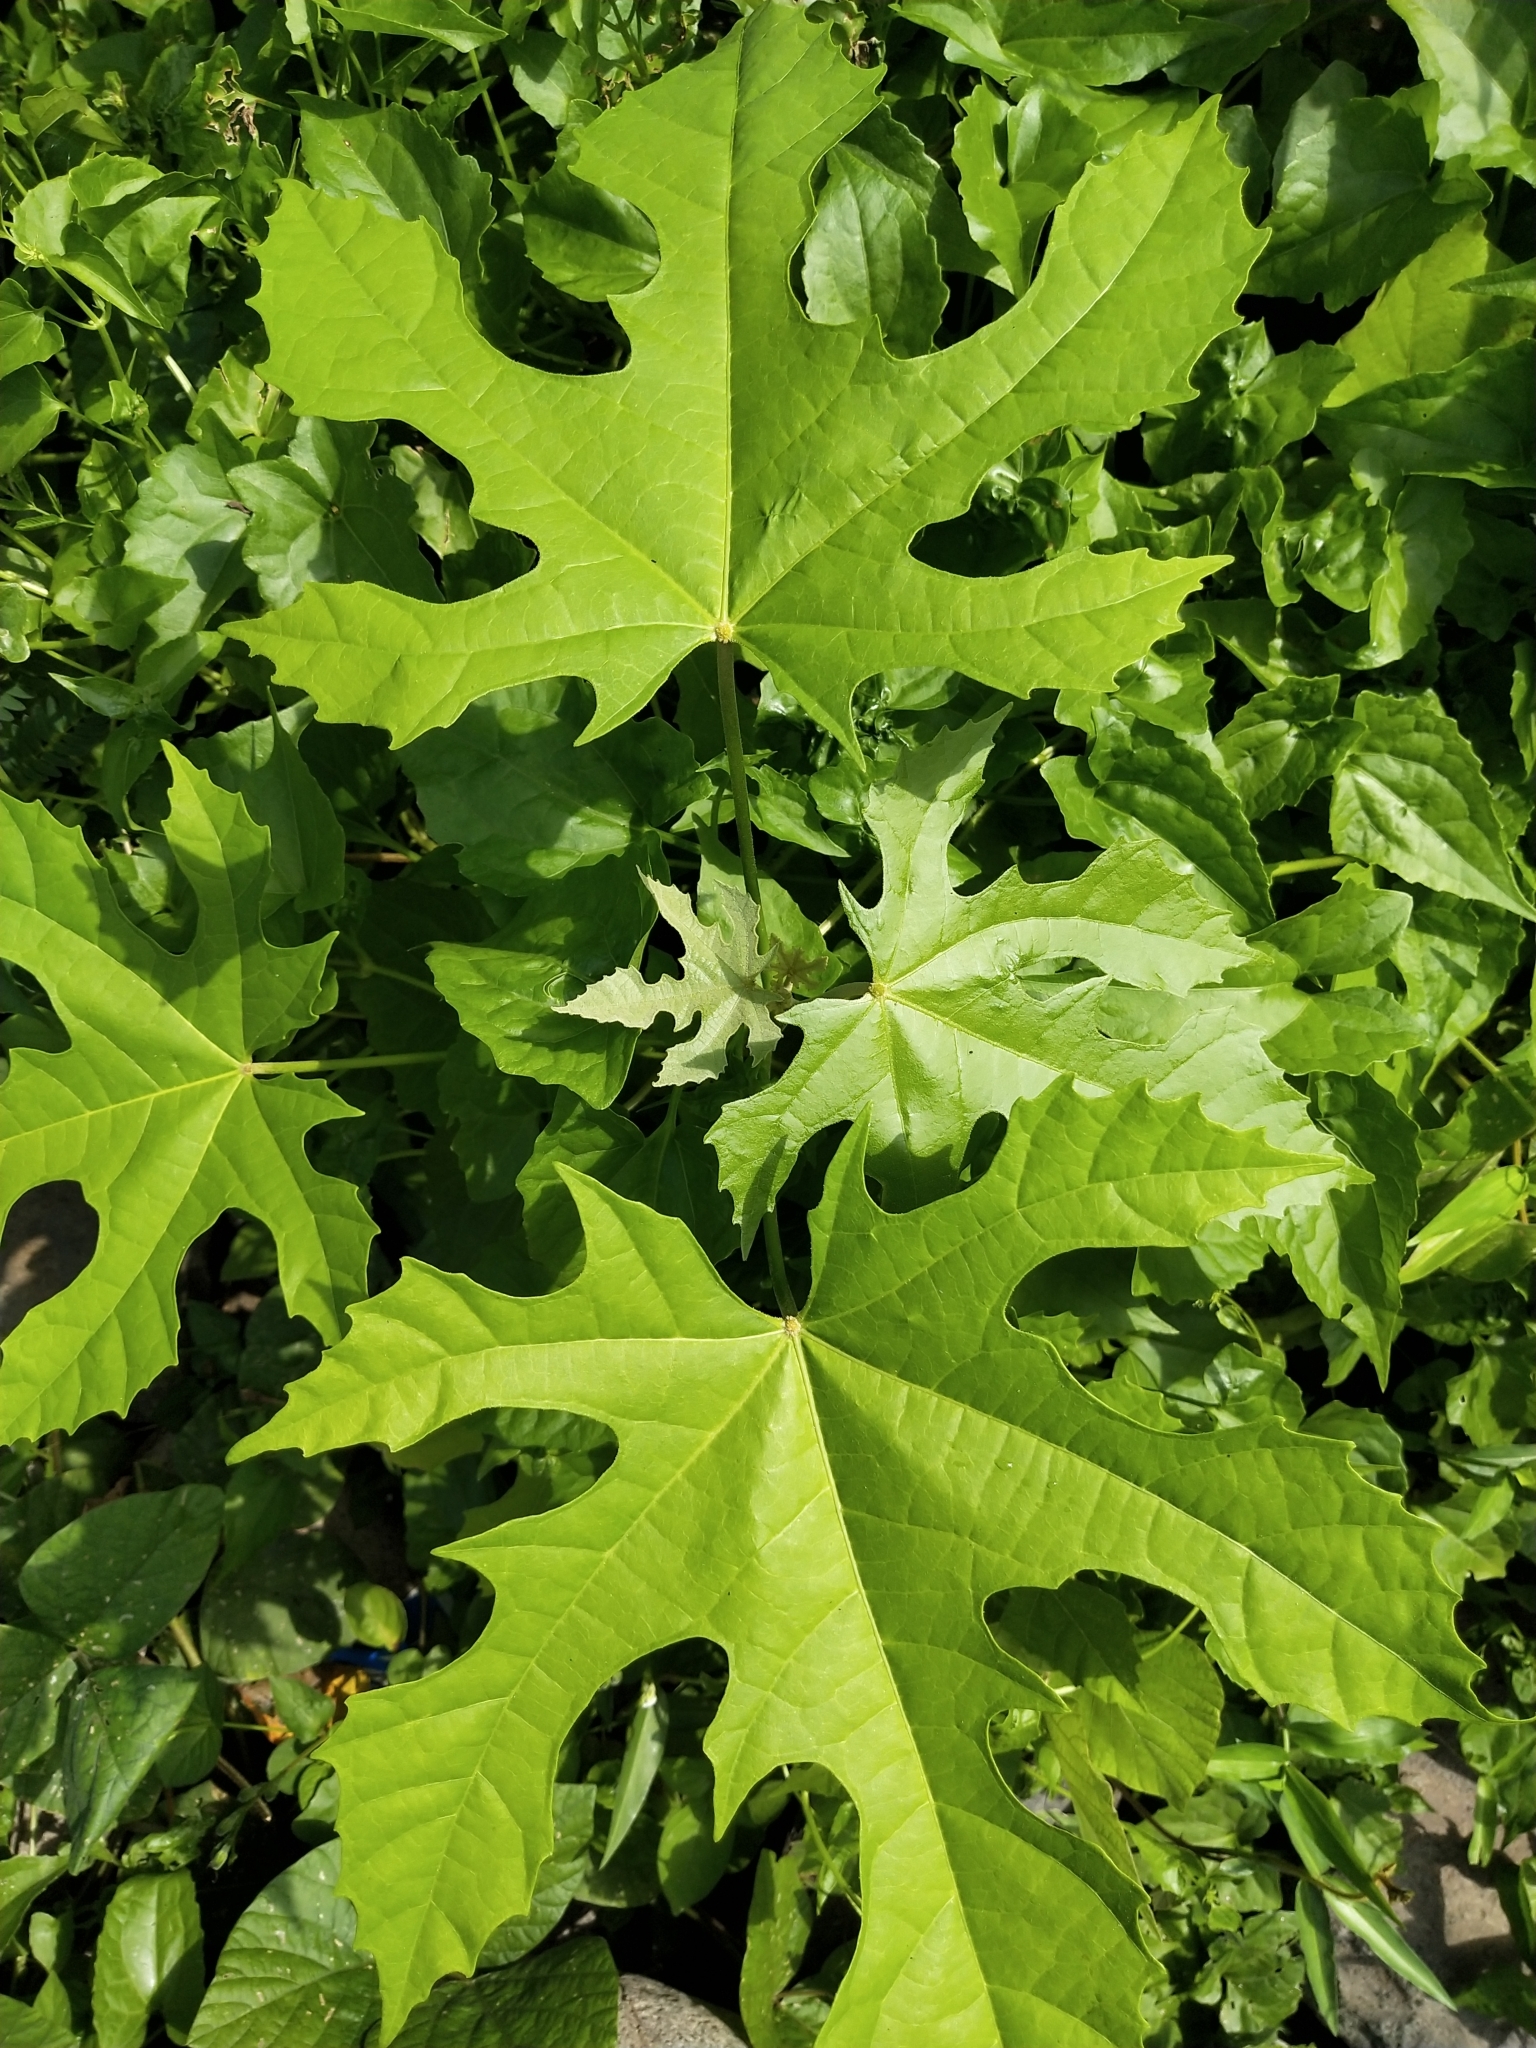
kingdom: Plantae
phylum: Tracheophyta
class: Magnoliopsida
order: Malpighiales
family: Euphorbiaceae
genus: Melanolepis
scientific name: Melanolepis multiglandulosa
